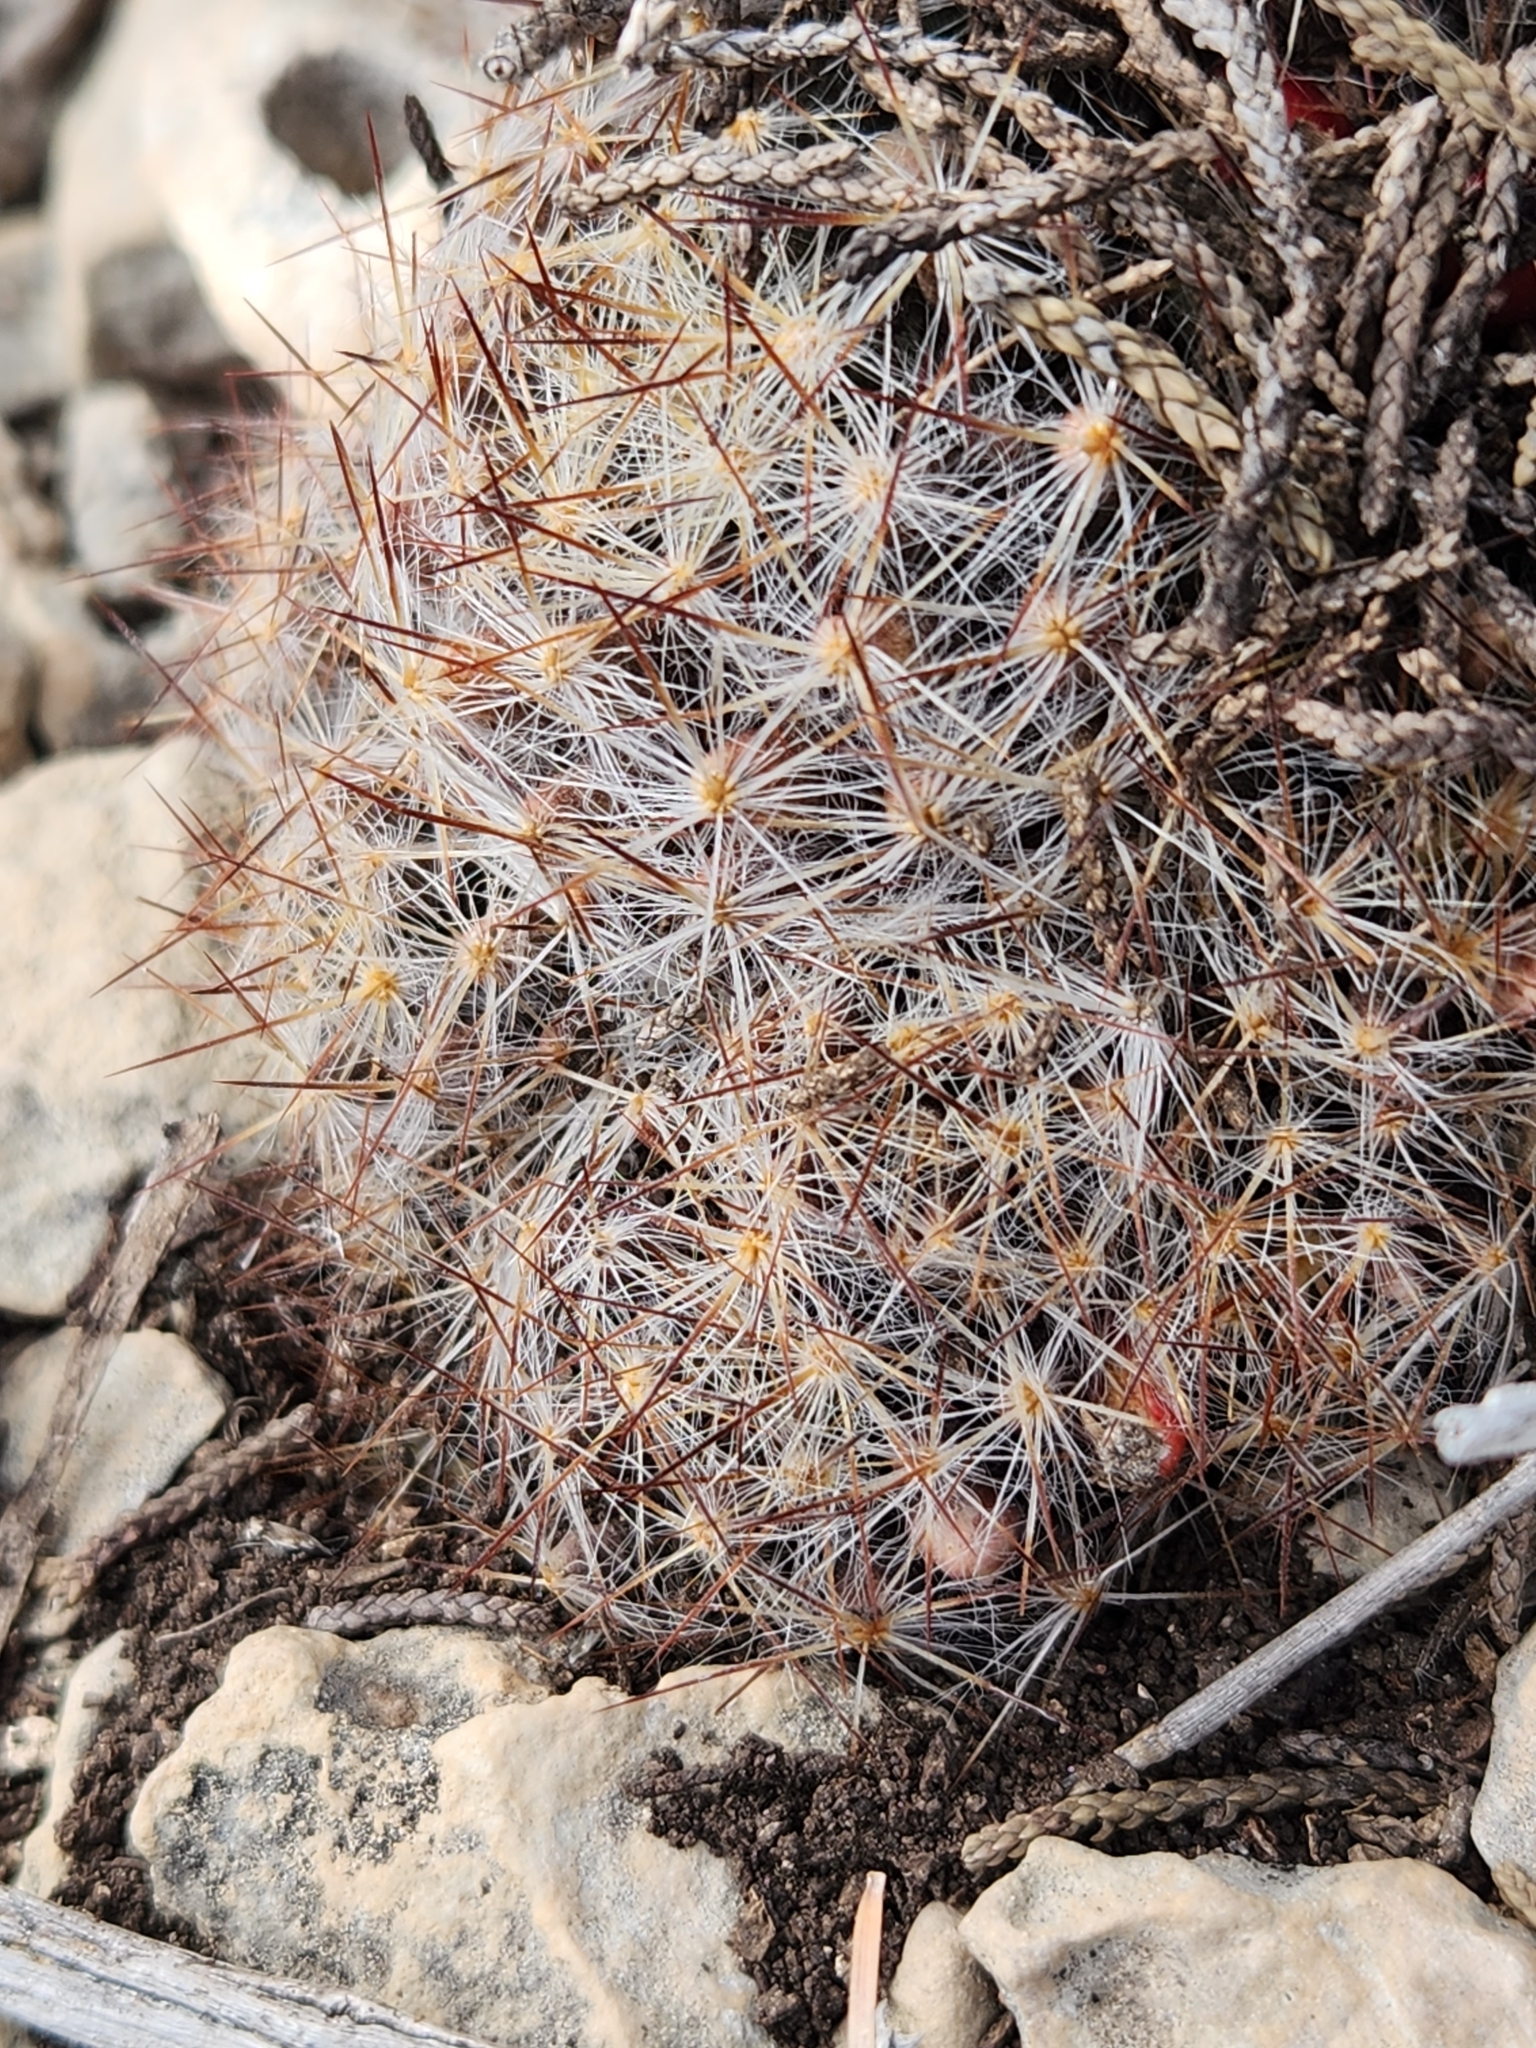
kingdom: Plantae
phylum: Tracheophyta
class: Magnoliopsida
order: Caryophyllales
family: Cactaceae
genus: Mammillaria
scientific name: Mammillaria prolifera
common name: Texas nipple cactus
